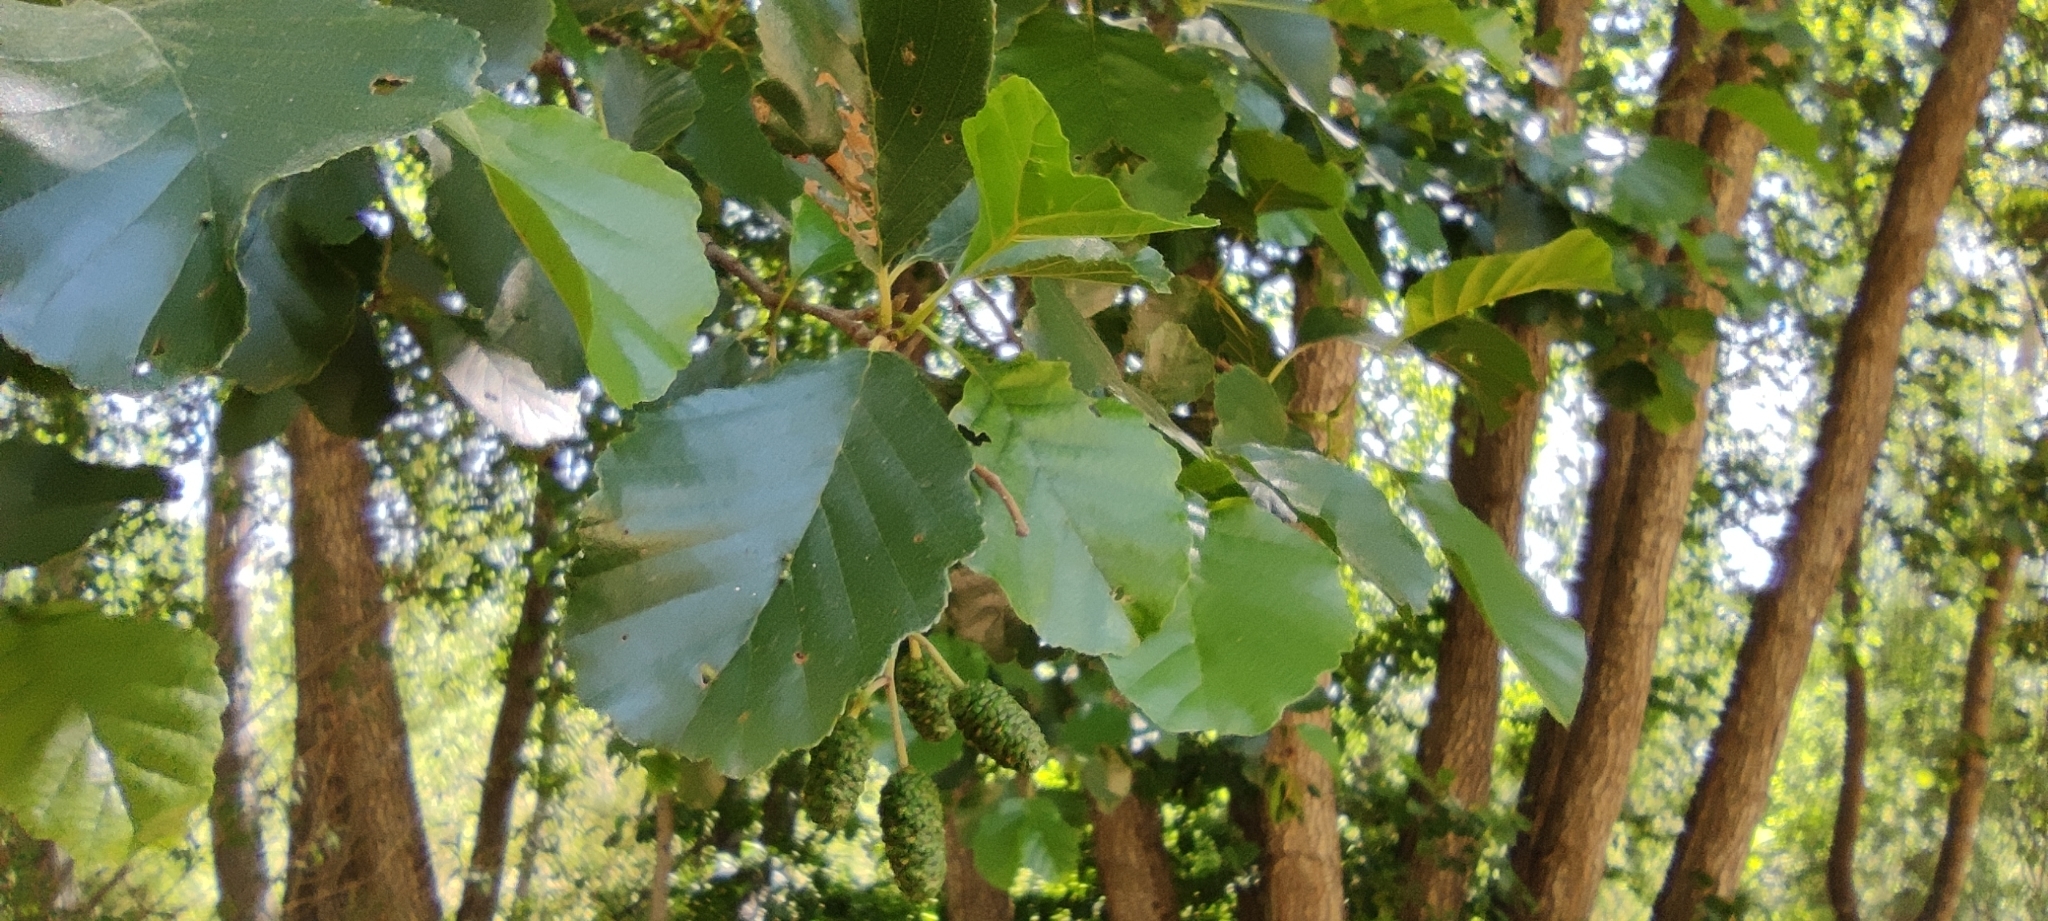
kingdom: Plantae
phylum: Tracheophyta
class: Magnoliopsida
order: Fagales
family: Betulaceae
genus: Alnus
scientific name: Alnus lusitanica
